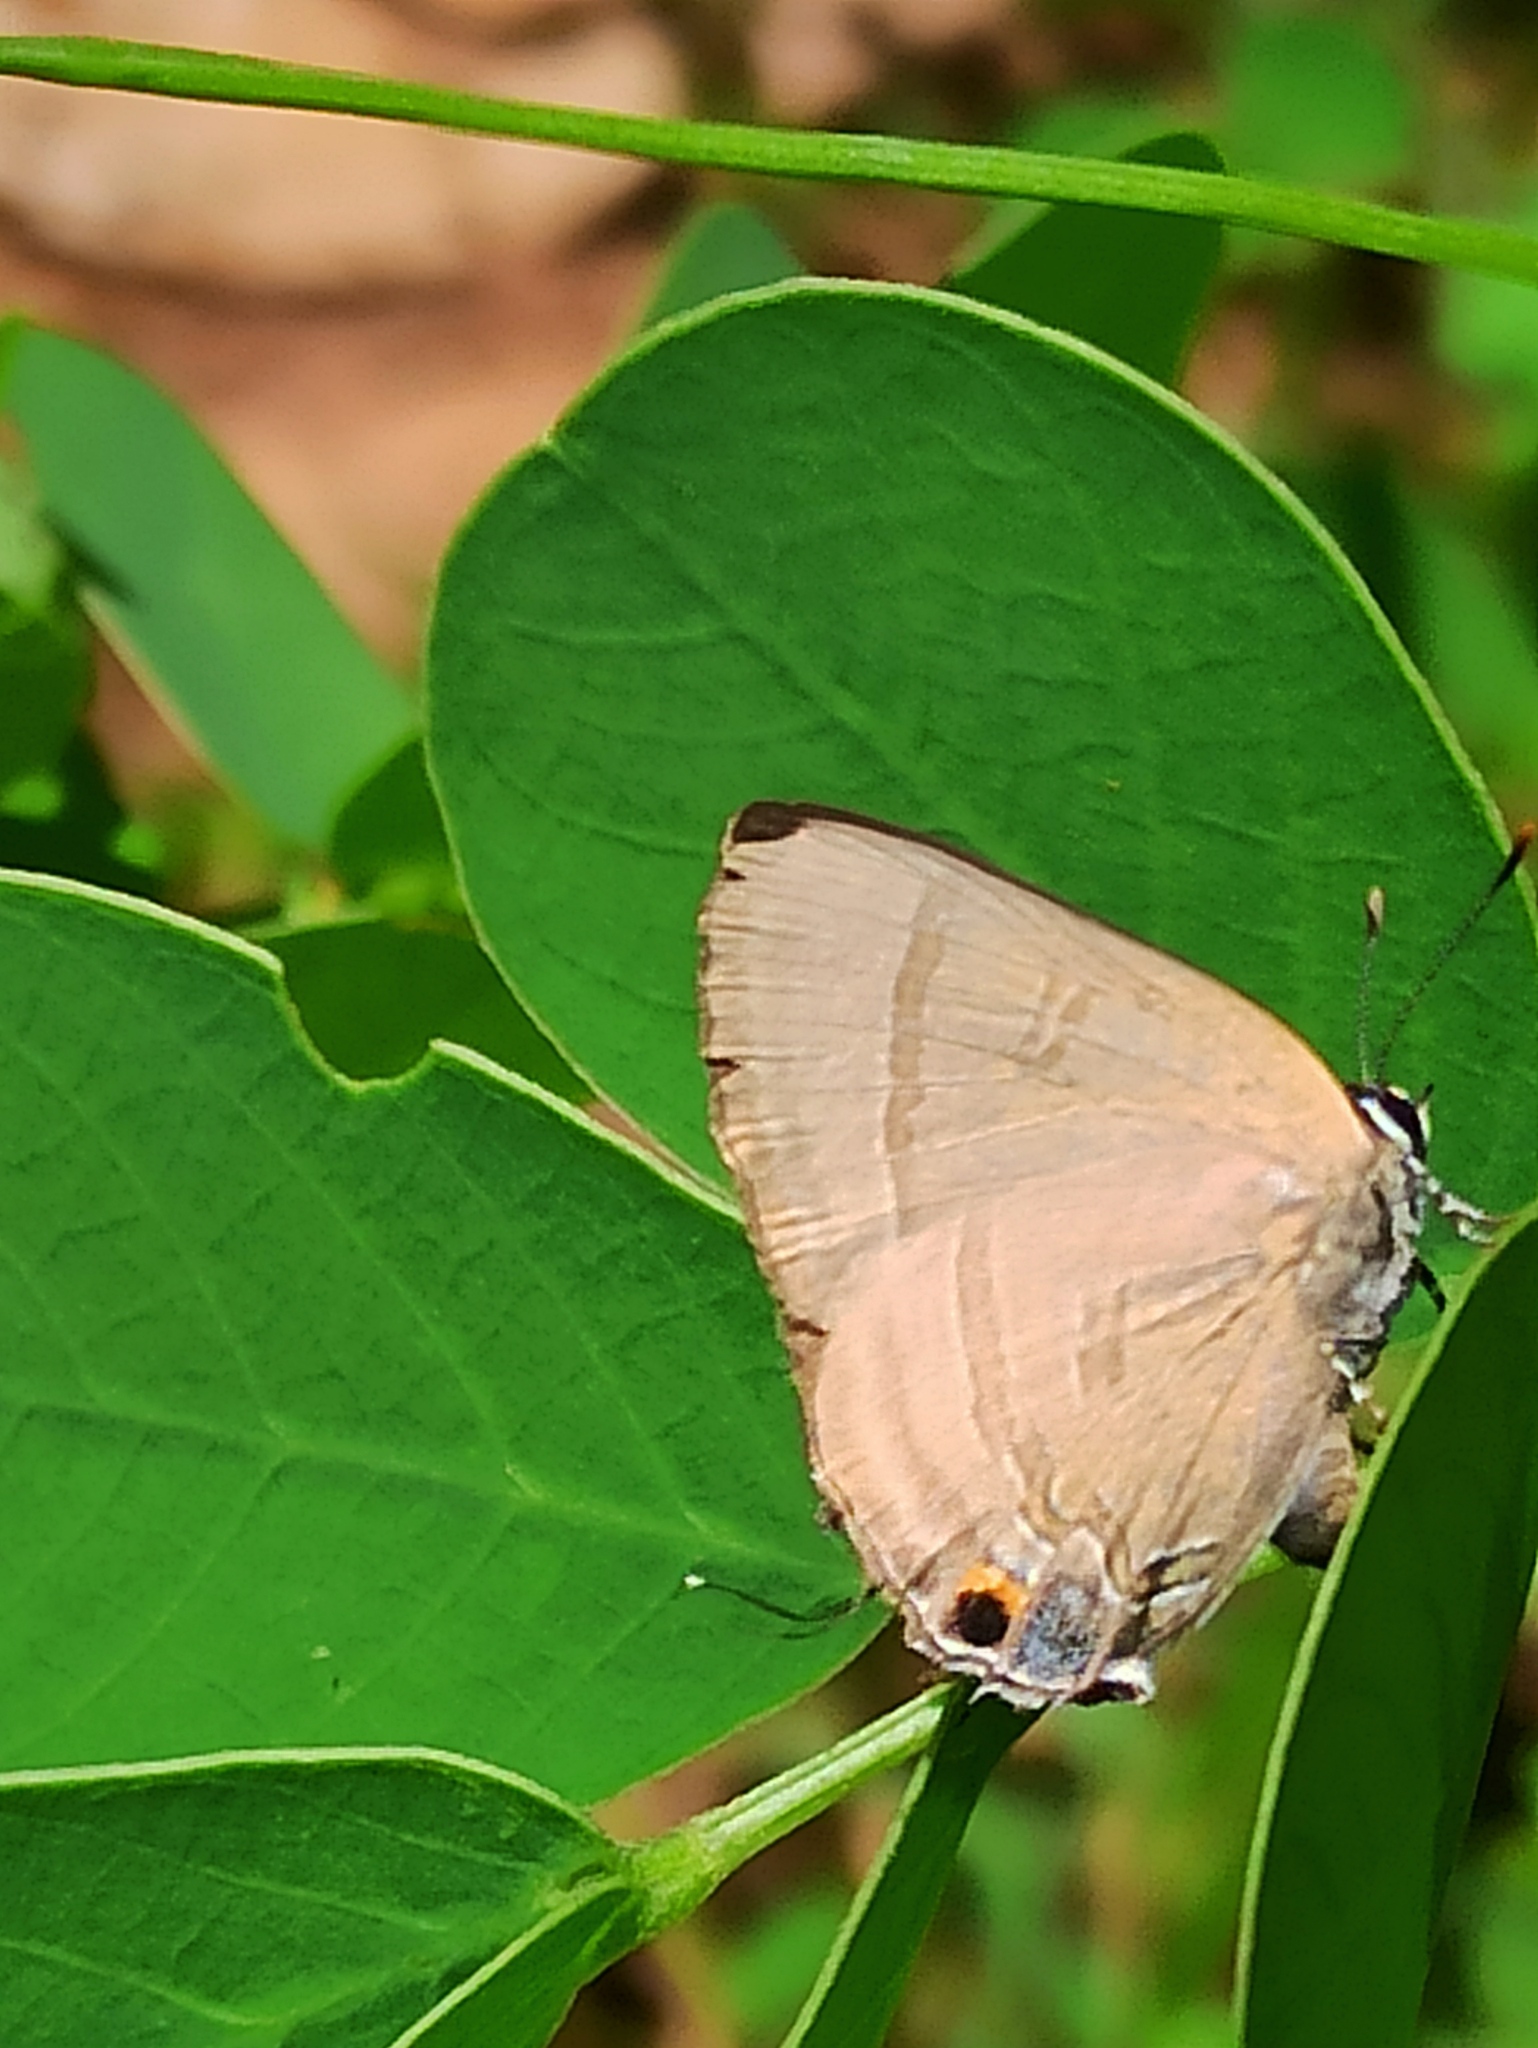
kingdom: Animalia
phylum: Arthropoda
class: Insecta
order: Lepidoptera
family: Lycaenidae
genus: Rapala
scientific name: Rapala manea
